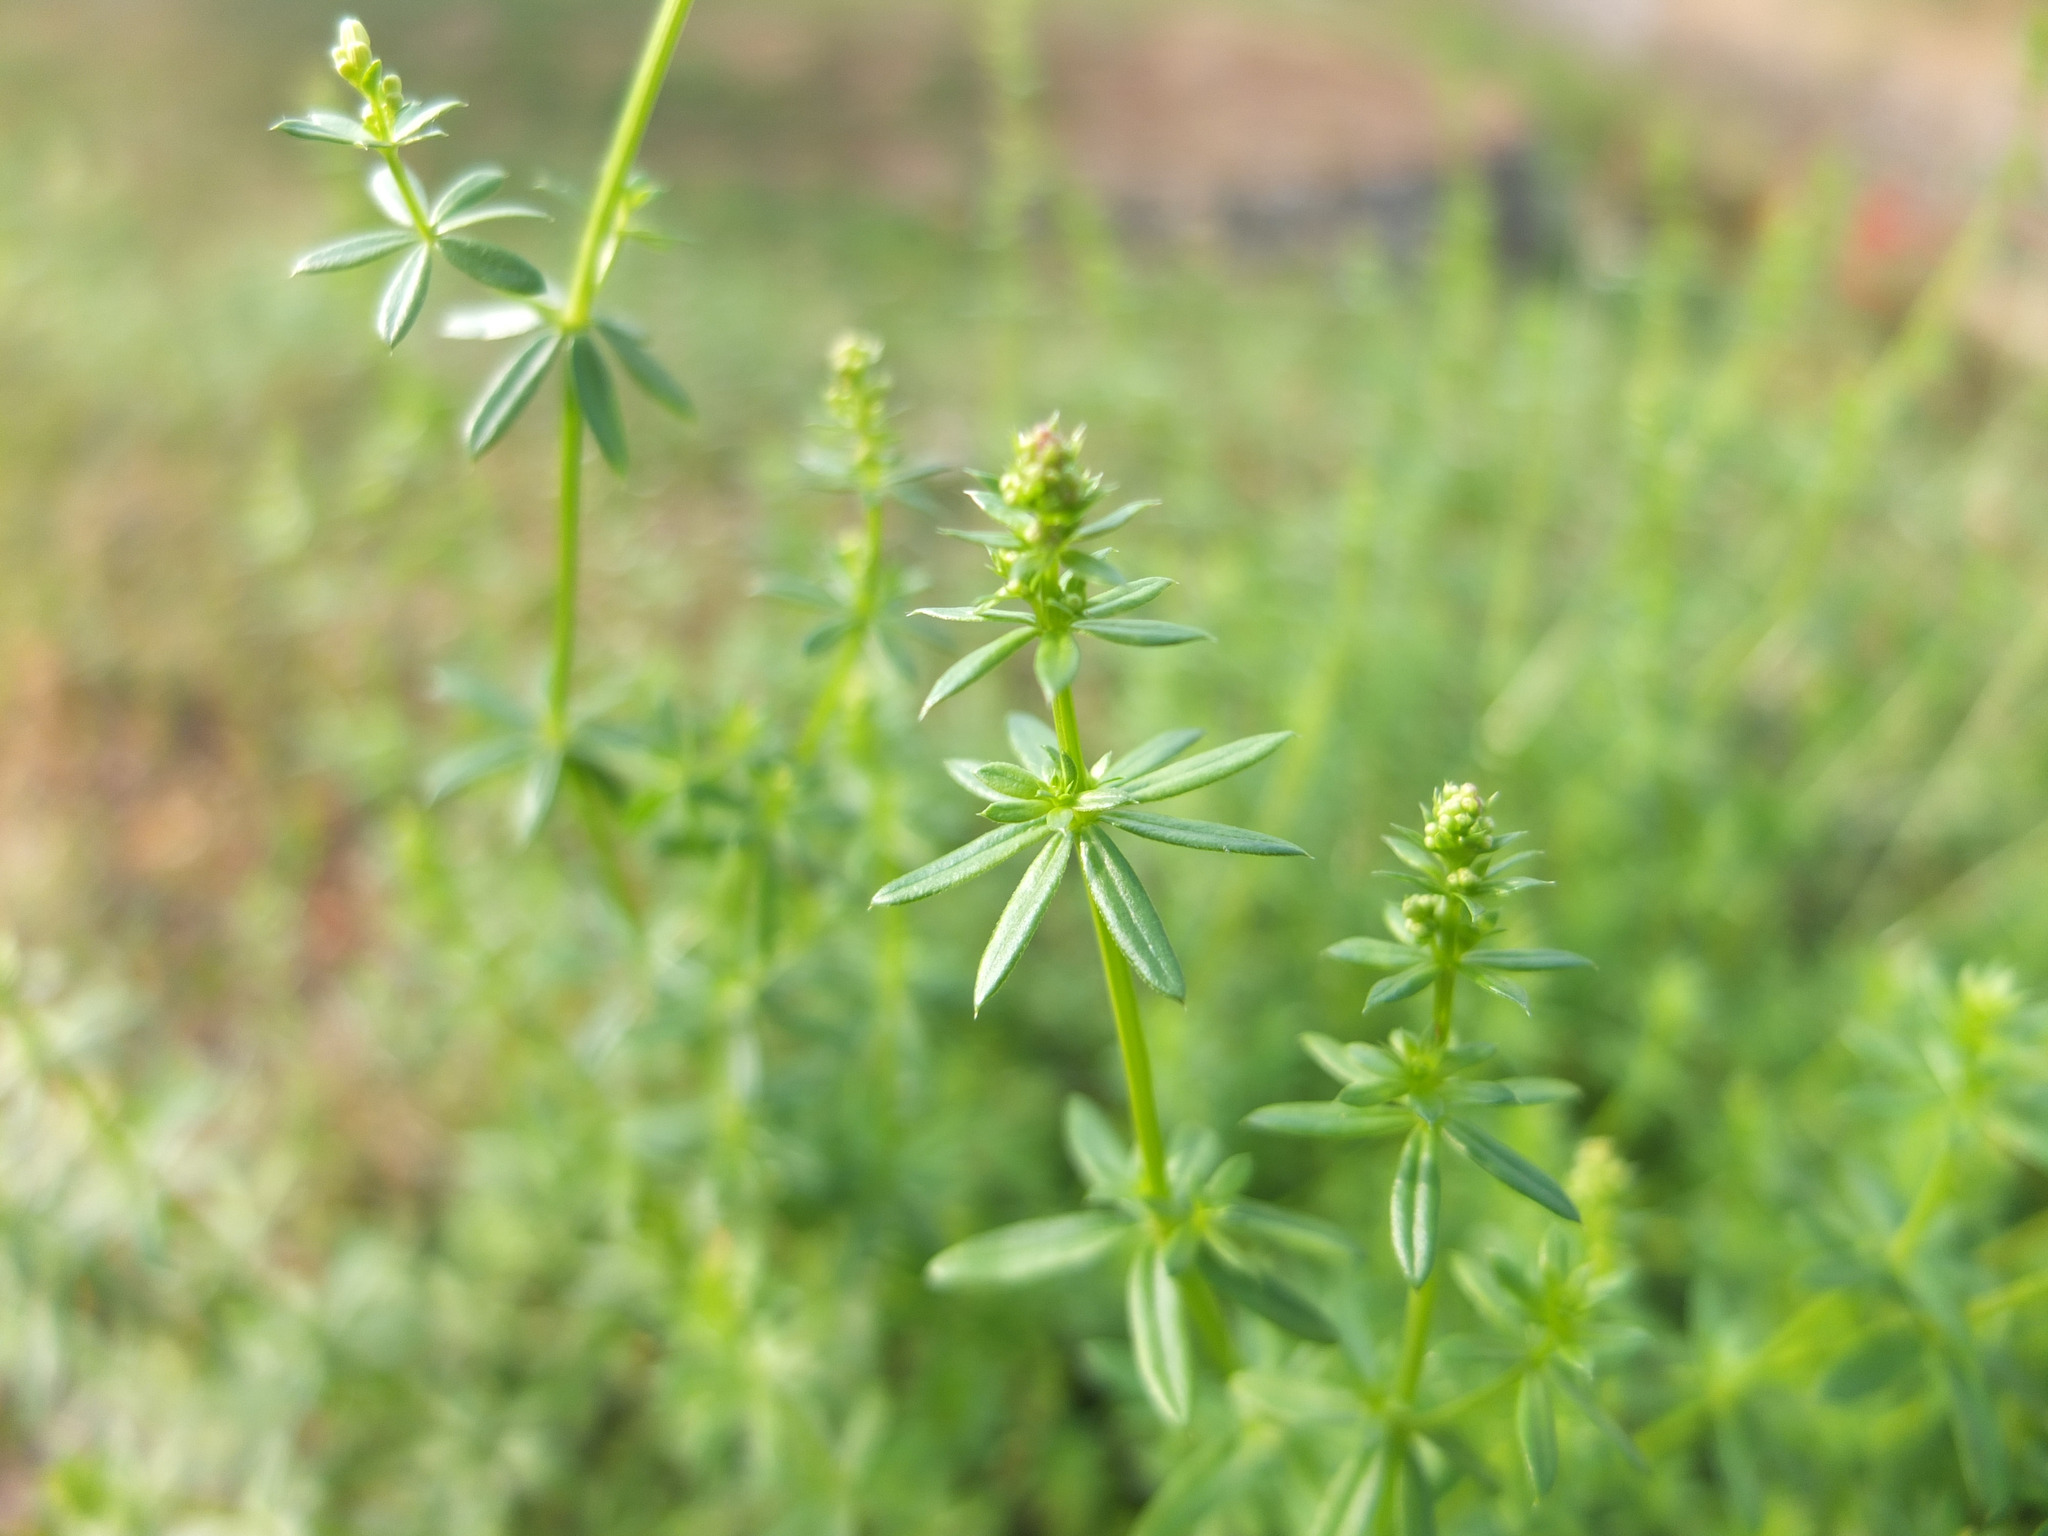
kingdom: Plantae
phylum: Tracheophyta
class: Magnoliopsida
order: Gentianales
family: Rubiaceae
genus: Galium
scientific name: Galium album
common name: White bedstraw
